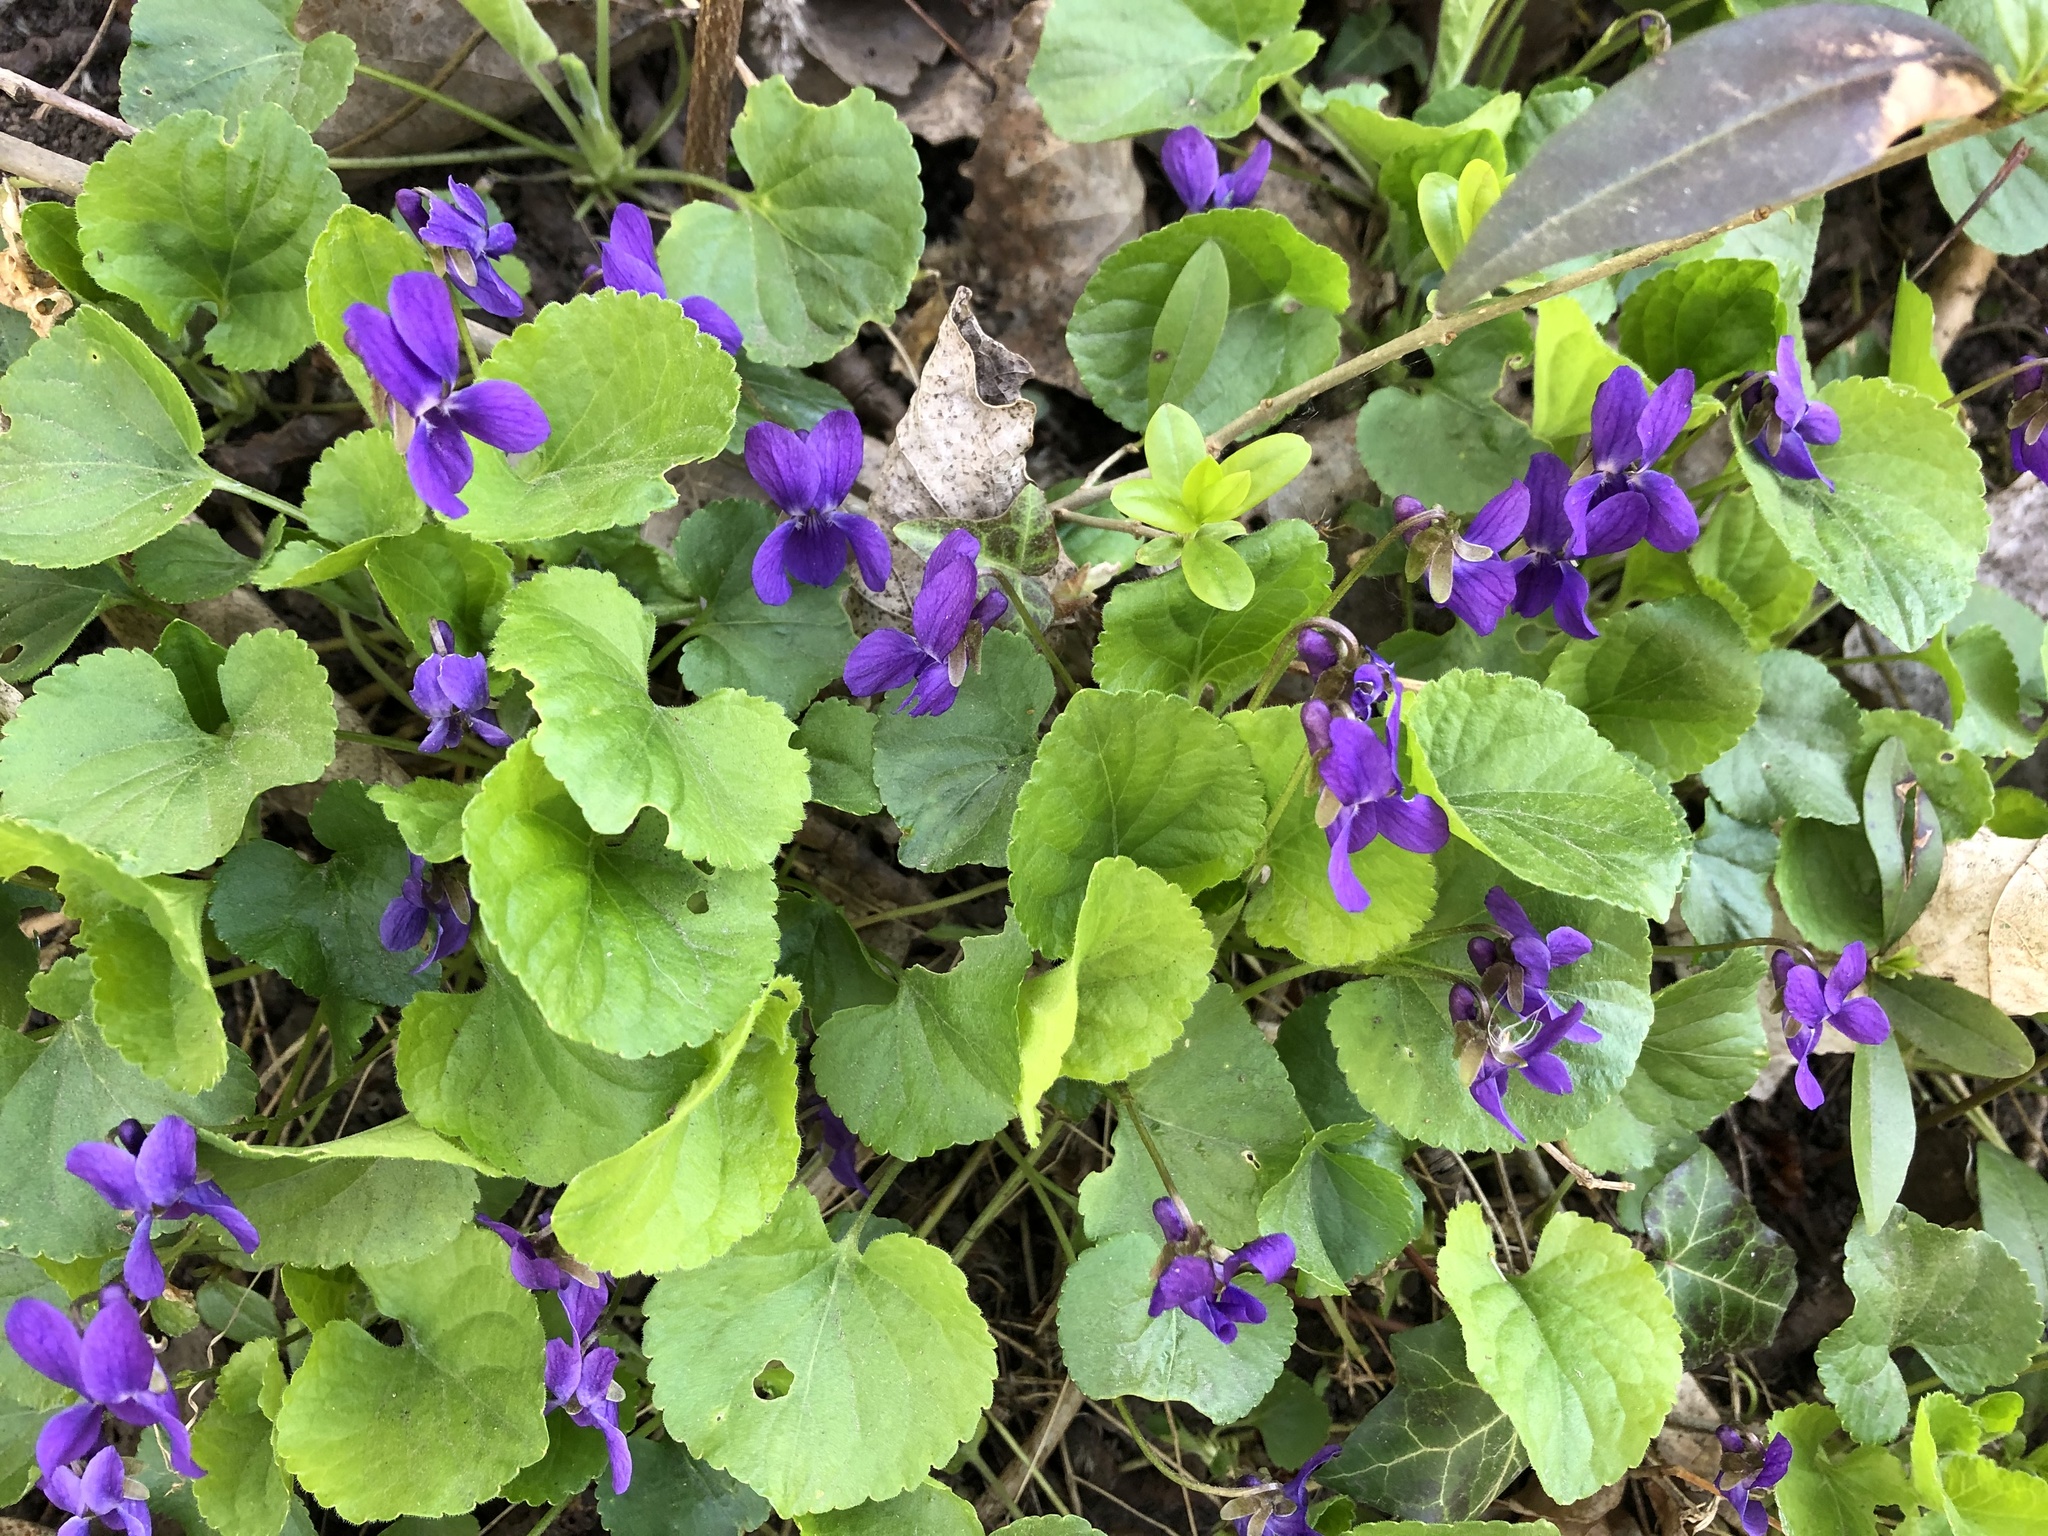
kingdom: Plantae
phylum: Tracheophyta
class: Magnoliopsida
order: Malpighiales
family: Violaceae
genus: Viola
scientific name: Viola odorata
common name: Sweet violet
